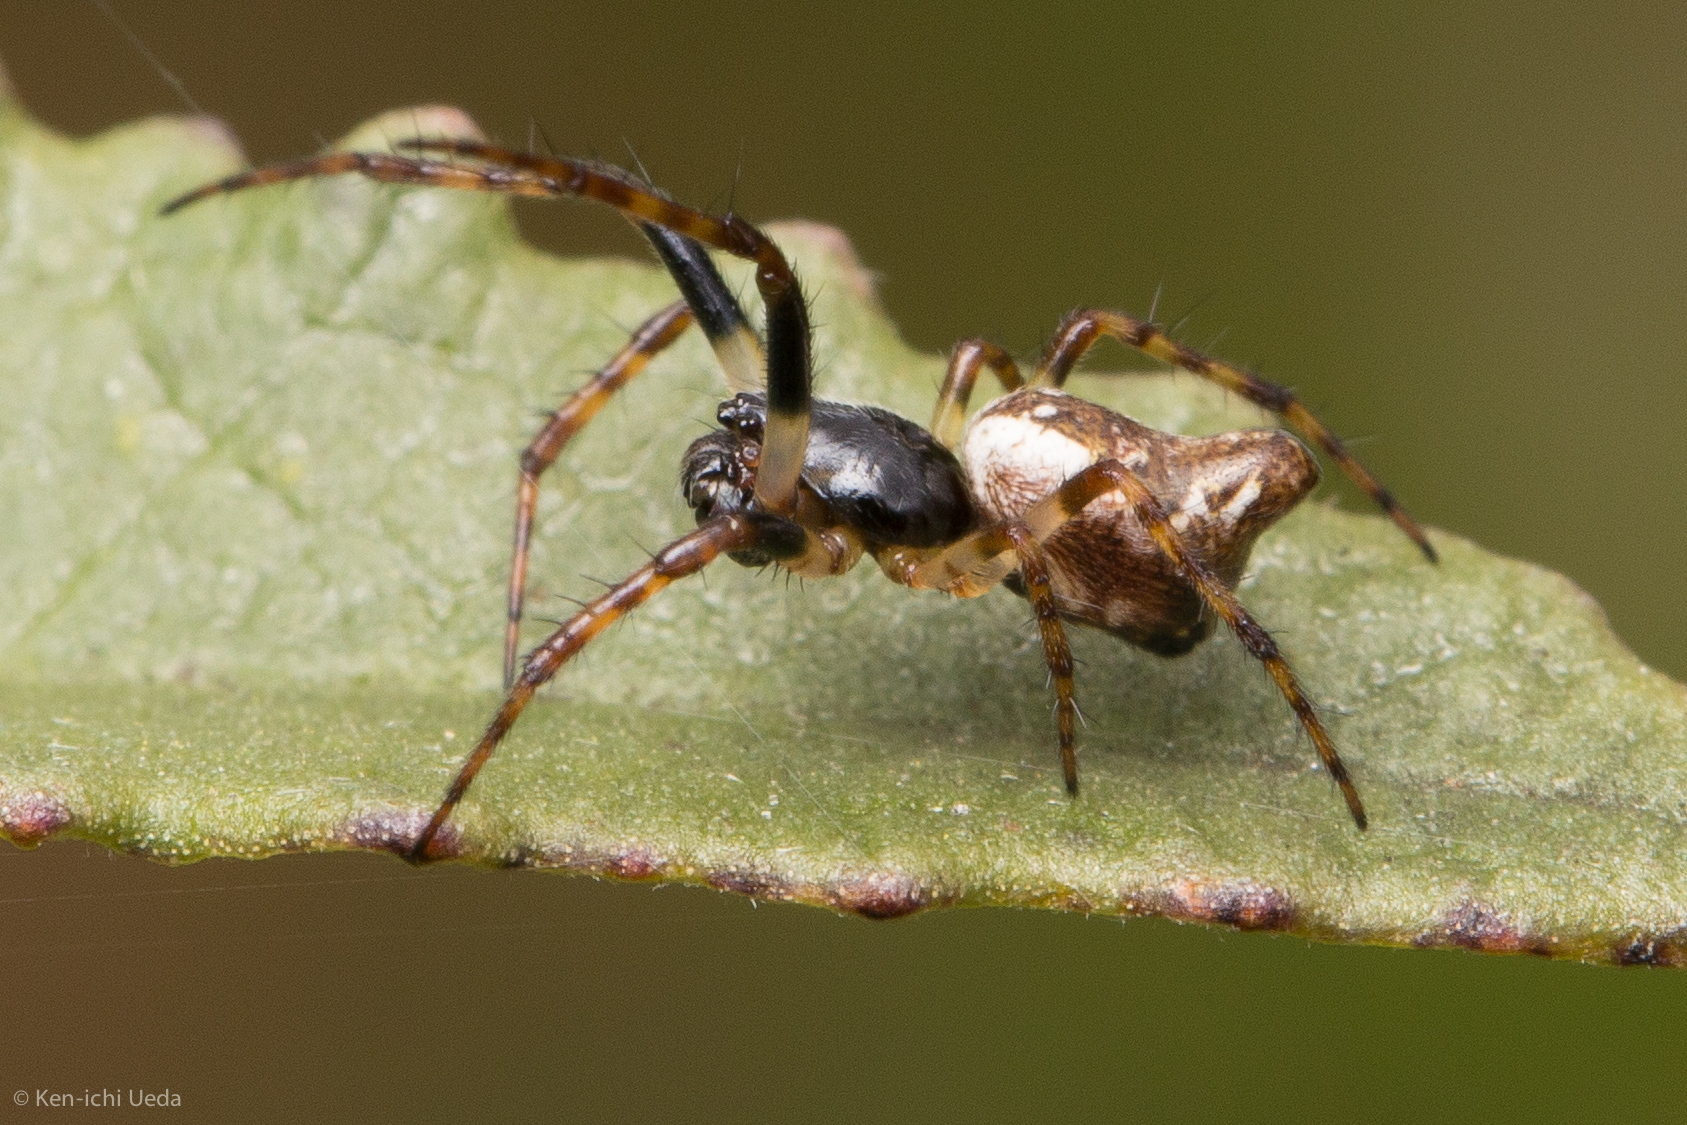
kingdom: Animalia
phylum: Arthropoda
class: Arachnida
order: Araneae
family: Araneidae
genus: Cyclosa
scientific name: Cyclosa conica
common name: Conical trashline orbweaver
